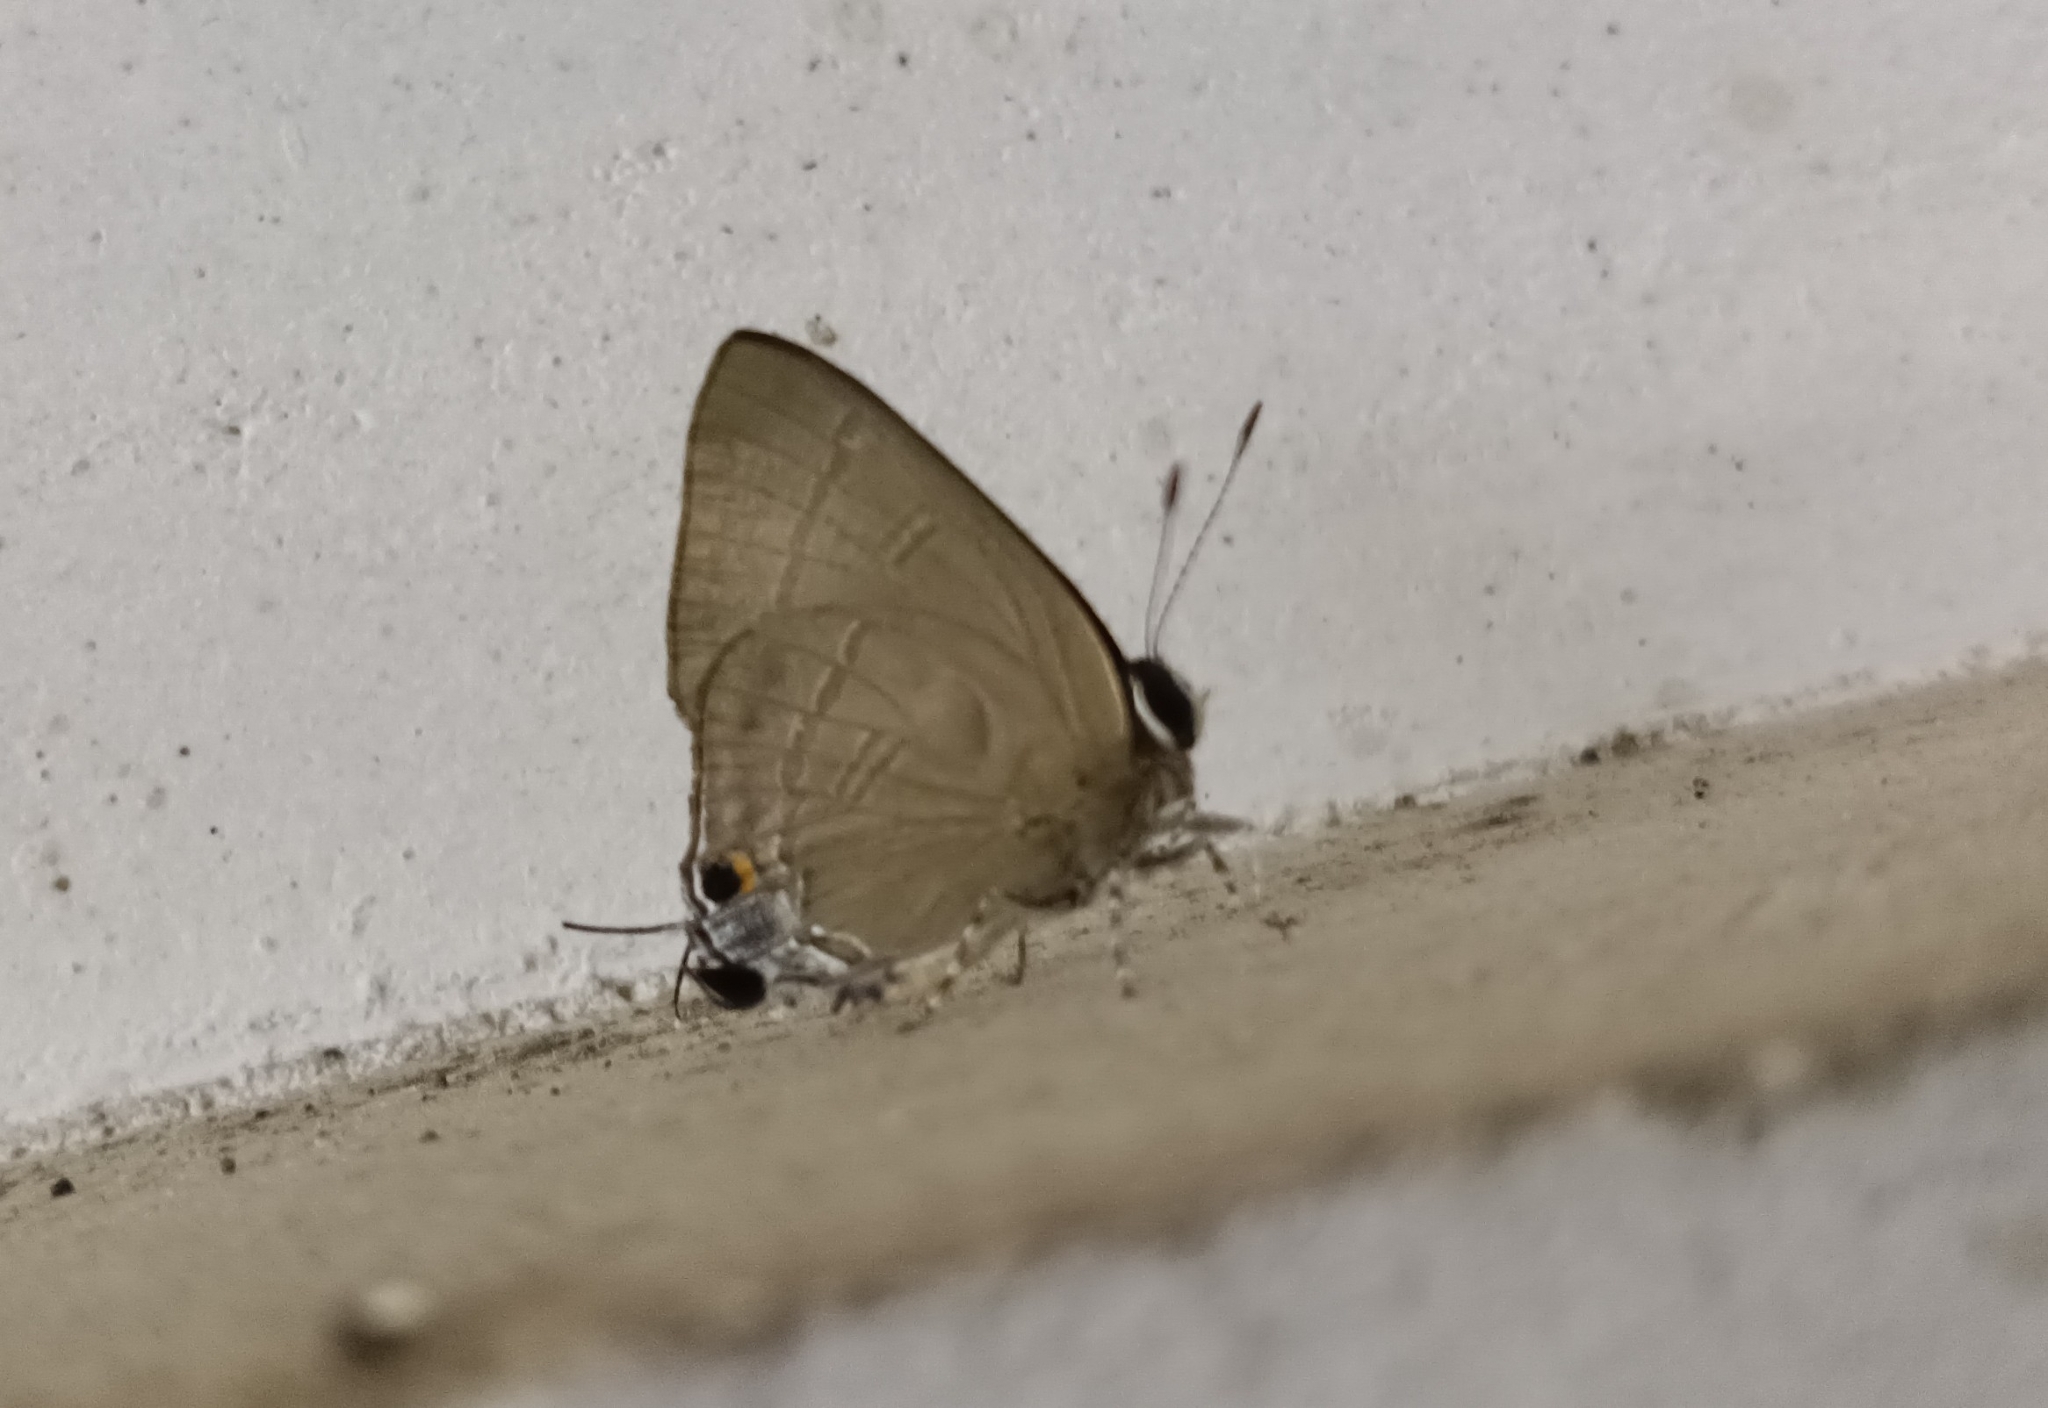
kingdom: Animalia
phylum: Arthropoda
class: Insecta
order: Lepidoptera
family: Lycaenidae
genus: Rapala
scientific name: Rapala manea
